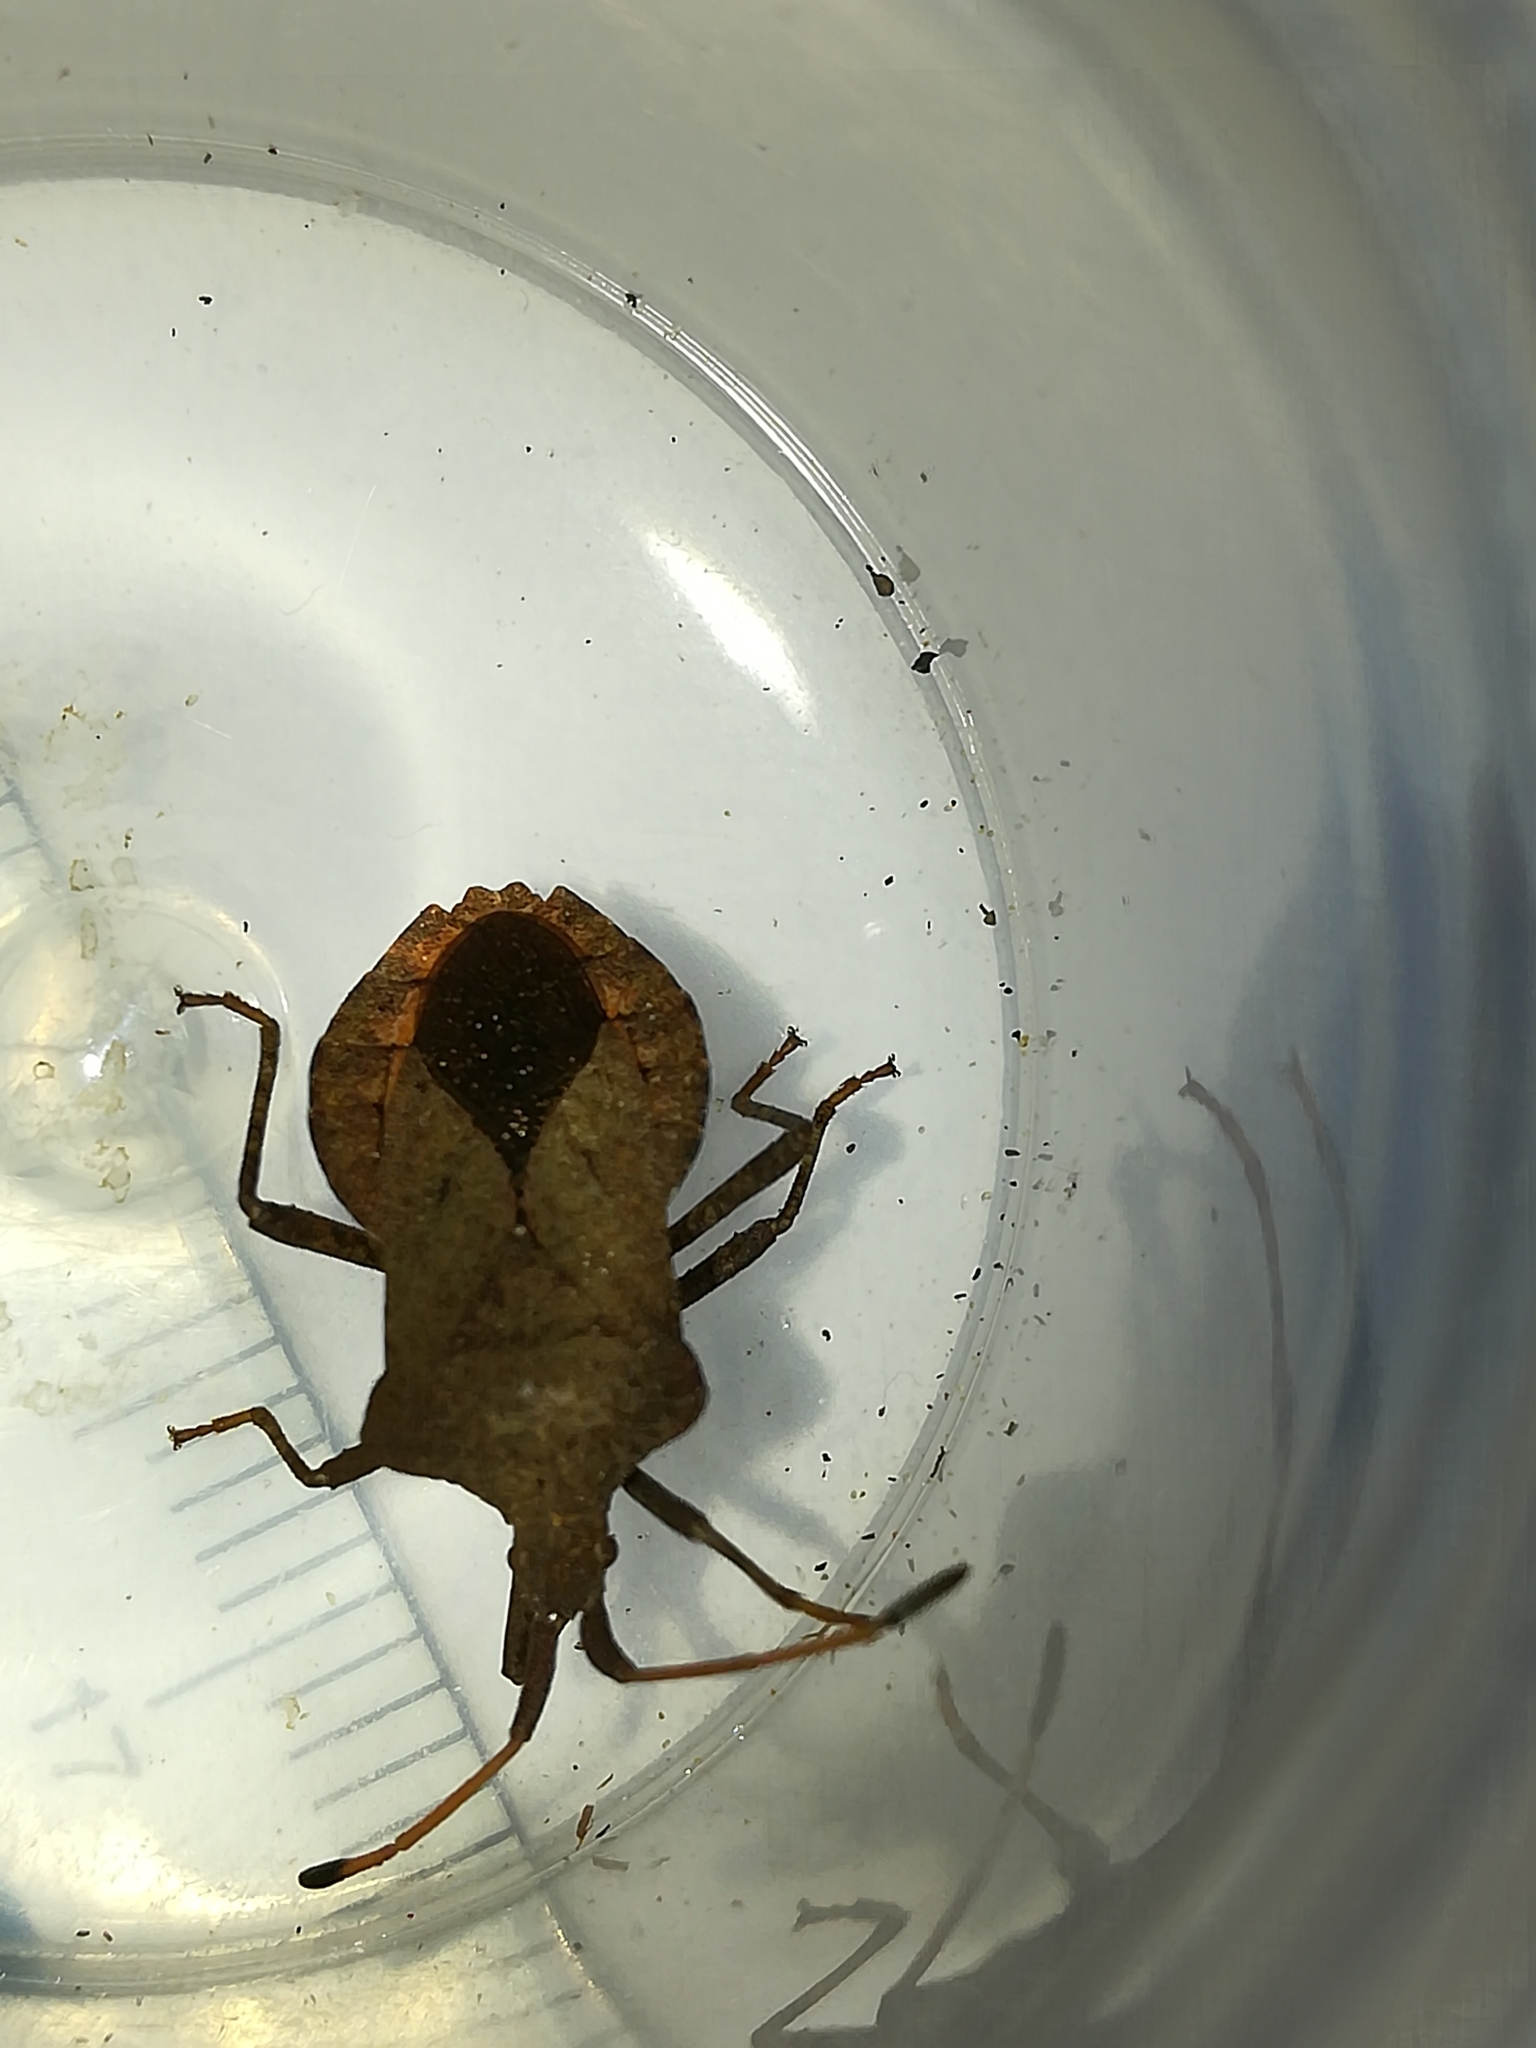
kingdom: Animalia
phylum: Arthropoda
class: Insecta
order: Hemiptera
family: Coreidae
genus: Coreus
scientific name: Coreus marginatus
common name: Dock bug
